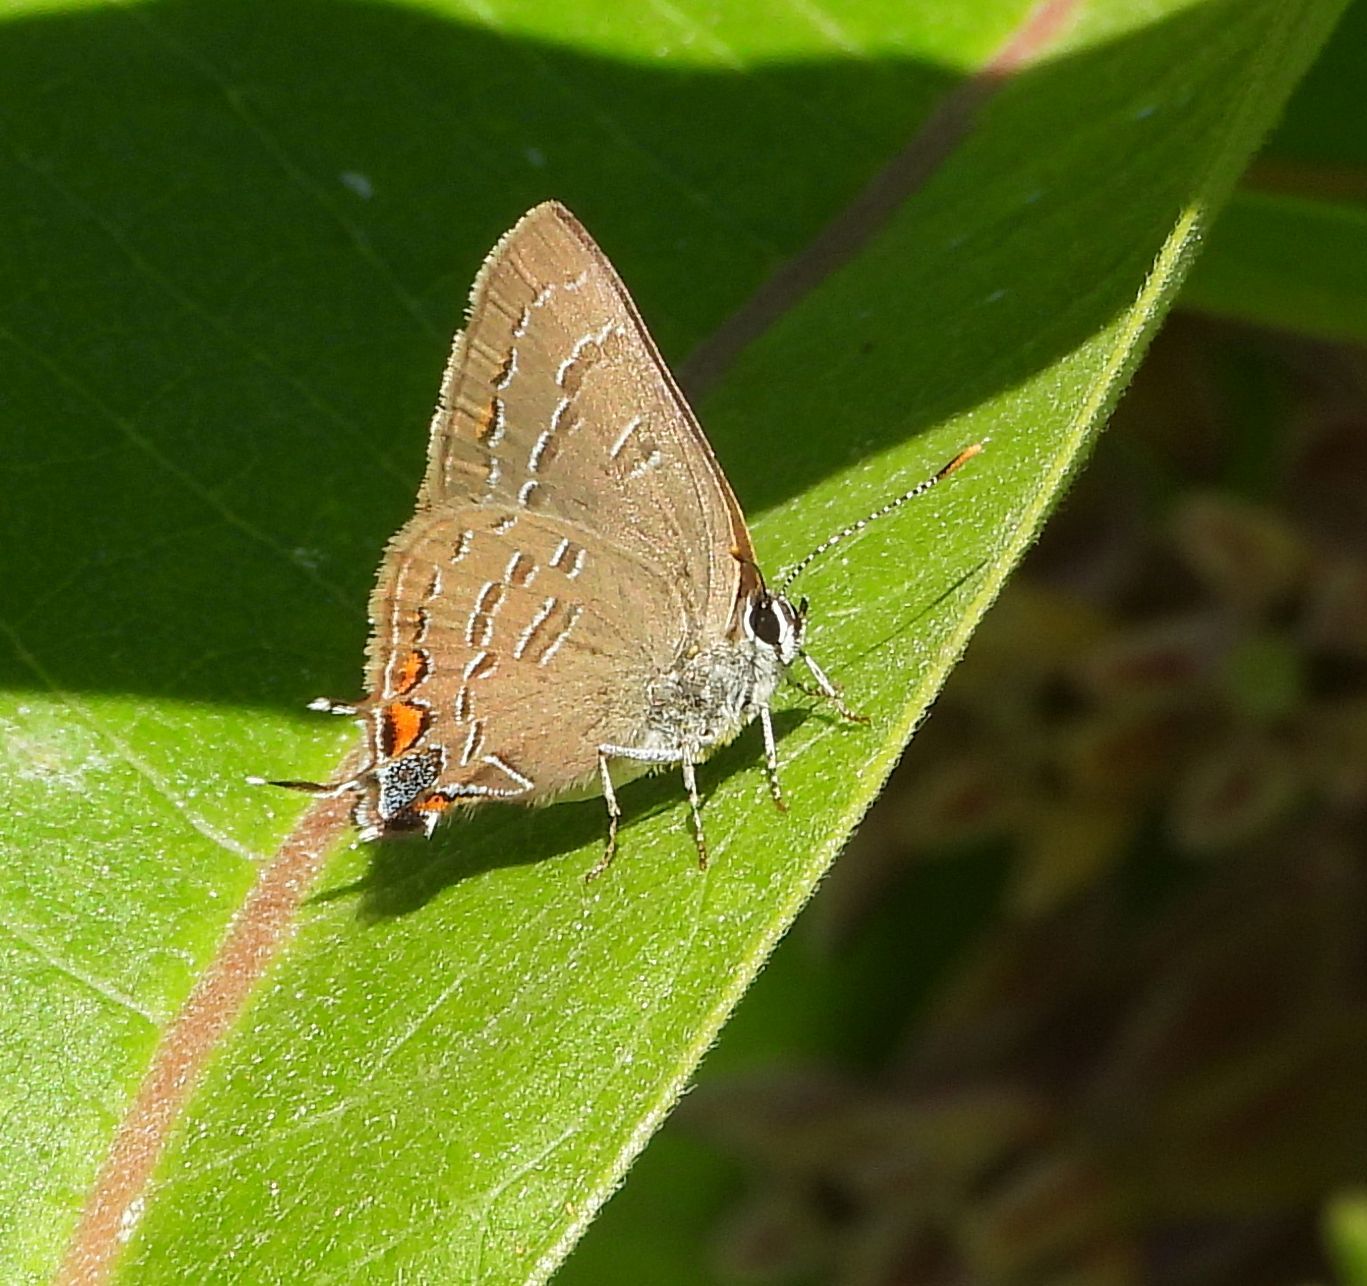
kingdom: Animalia
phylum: Arthropoda
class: Insecta
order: Lepidoptera
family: Lycaenidae
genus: Satyrium
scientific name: Satyrium calanus
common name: Banded hairstreak
